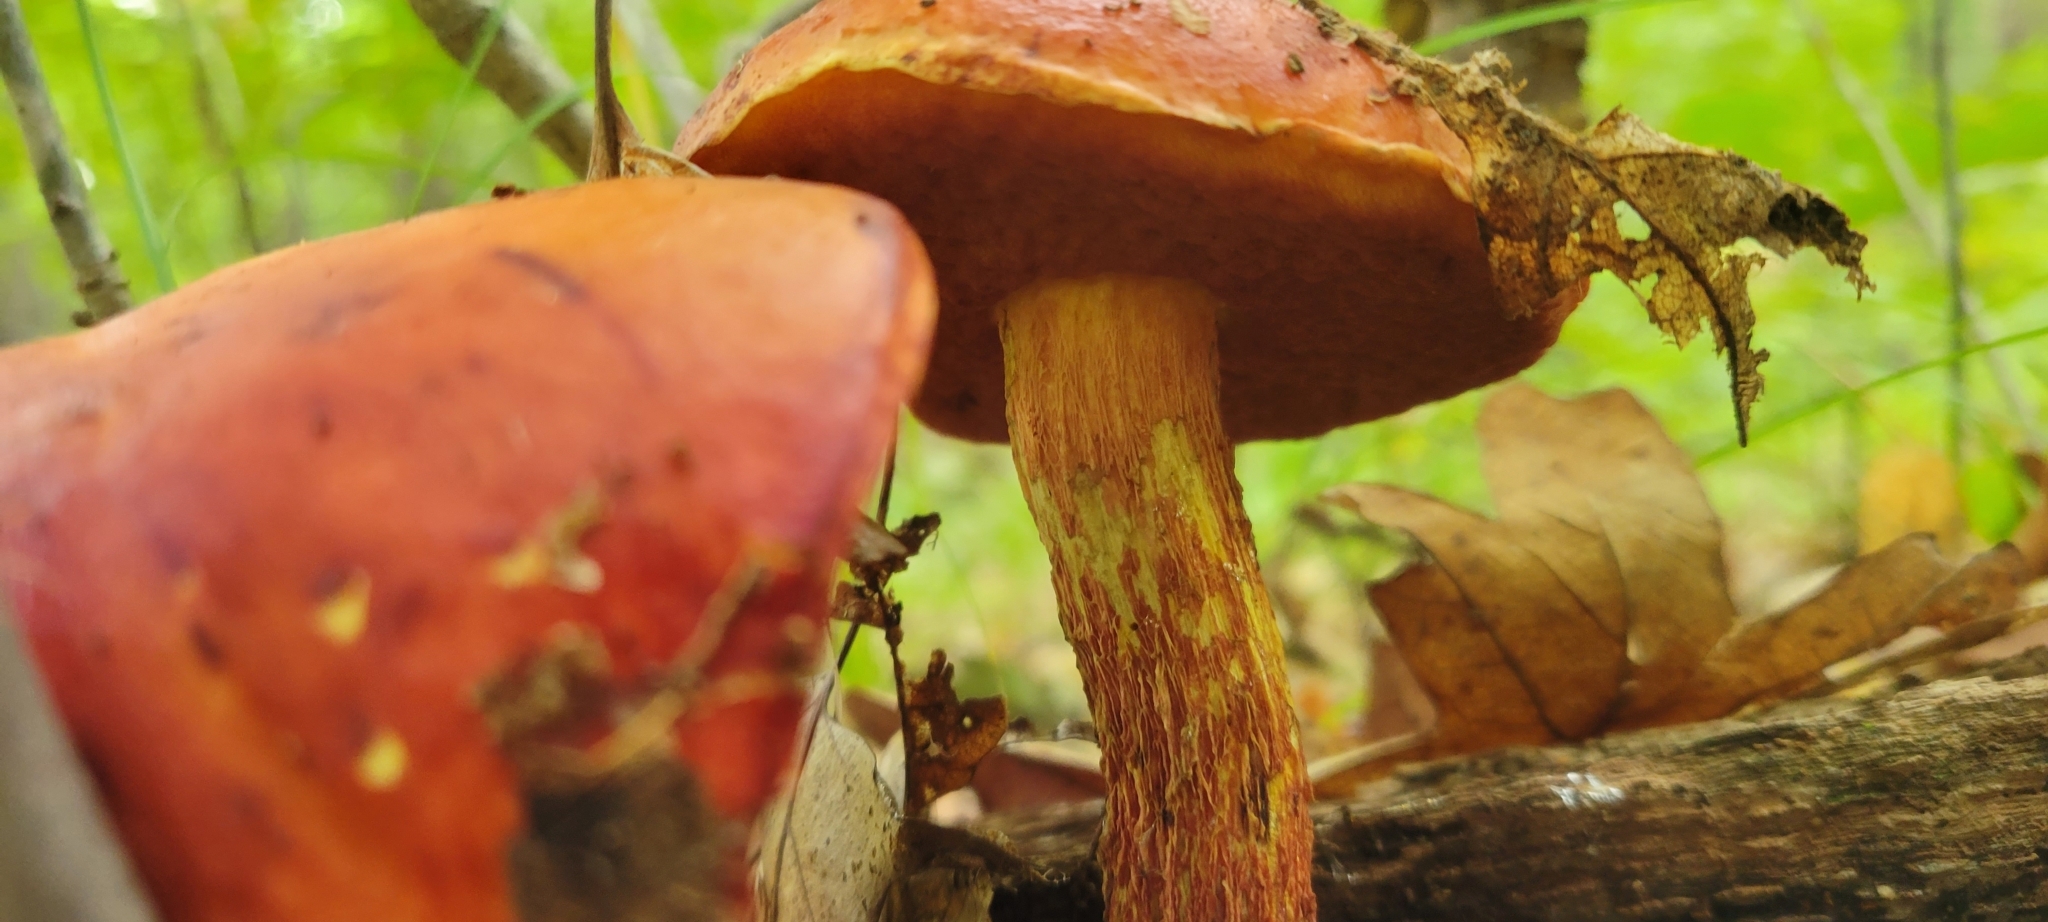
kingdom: Fungi
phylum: Basidiomycota
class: Agaricomycetes
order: Boletales
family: Boletaceae
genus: Butyriboletus
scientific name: Butyriboletus frostii
